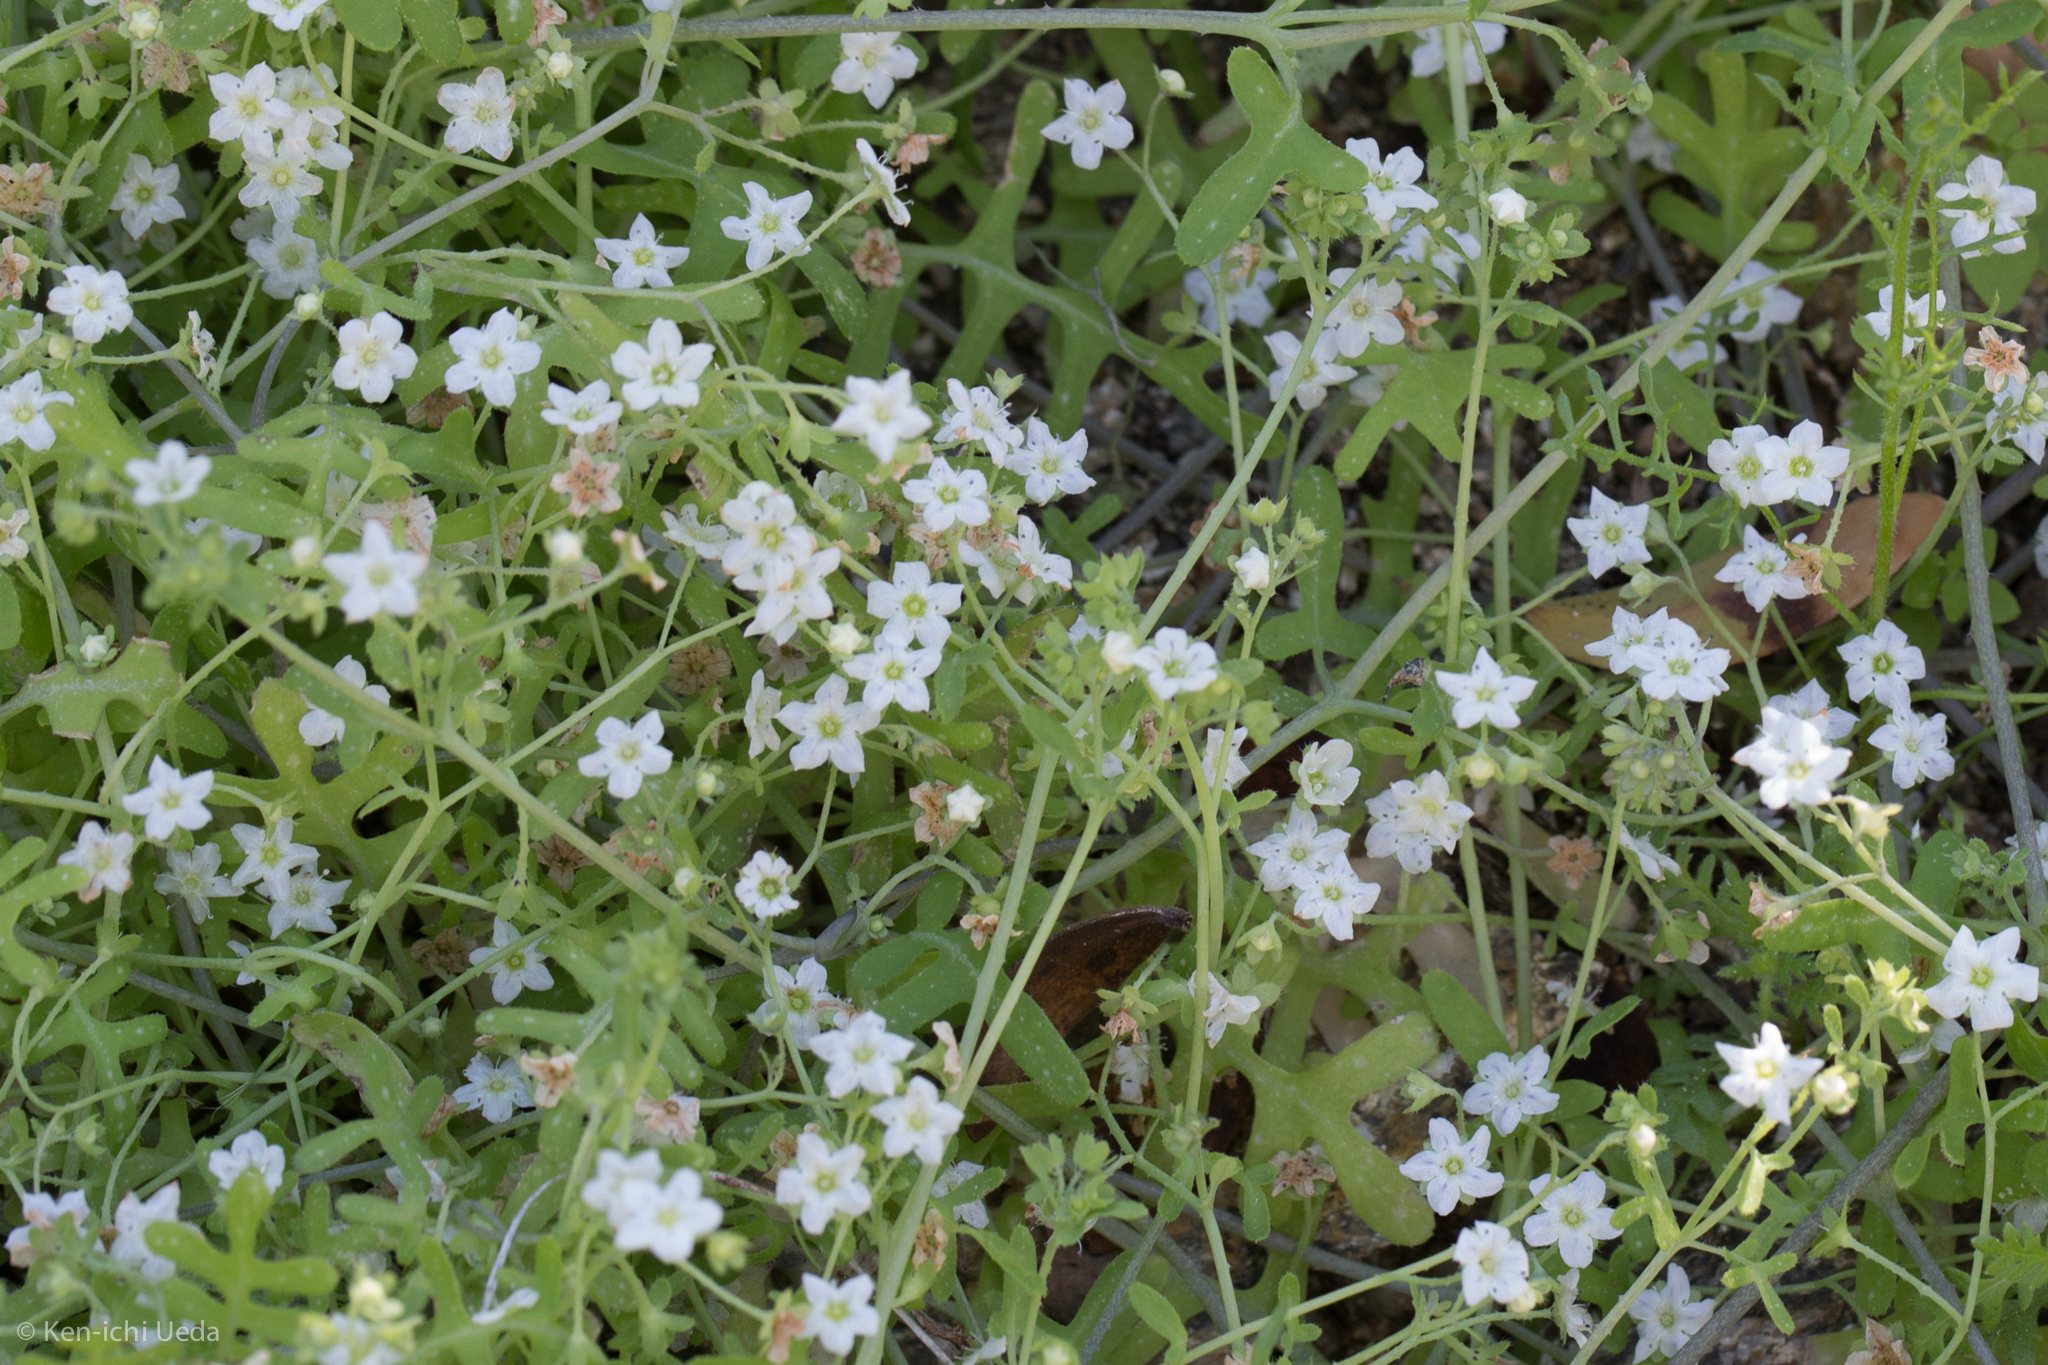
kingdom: Plantae
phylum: Tracheophyta
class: Magnoliopsida
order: Boraginales
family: Hydrophyllaceae
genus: Pholistoma
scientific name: Pholistoma membranaceum
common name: White fiesta-flower
